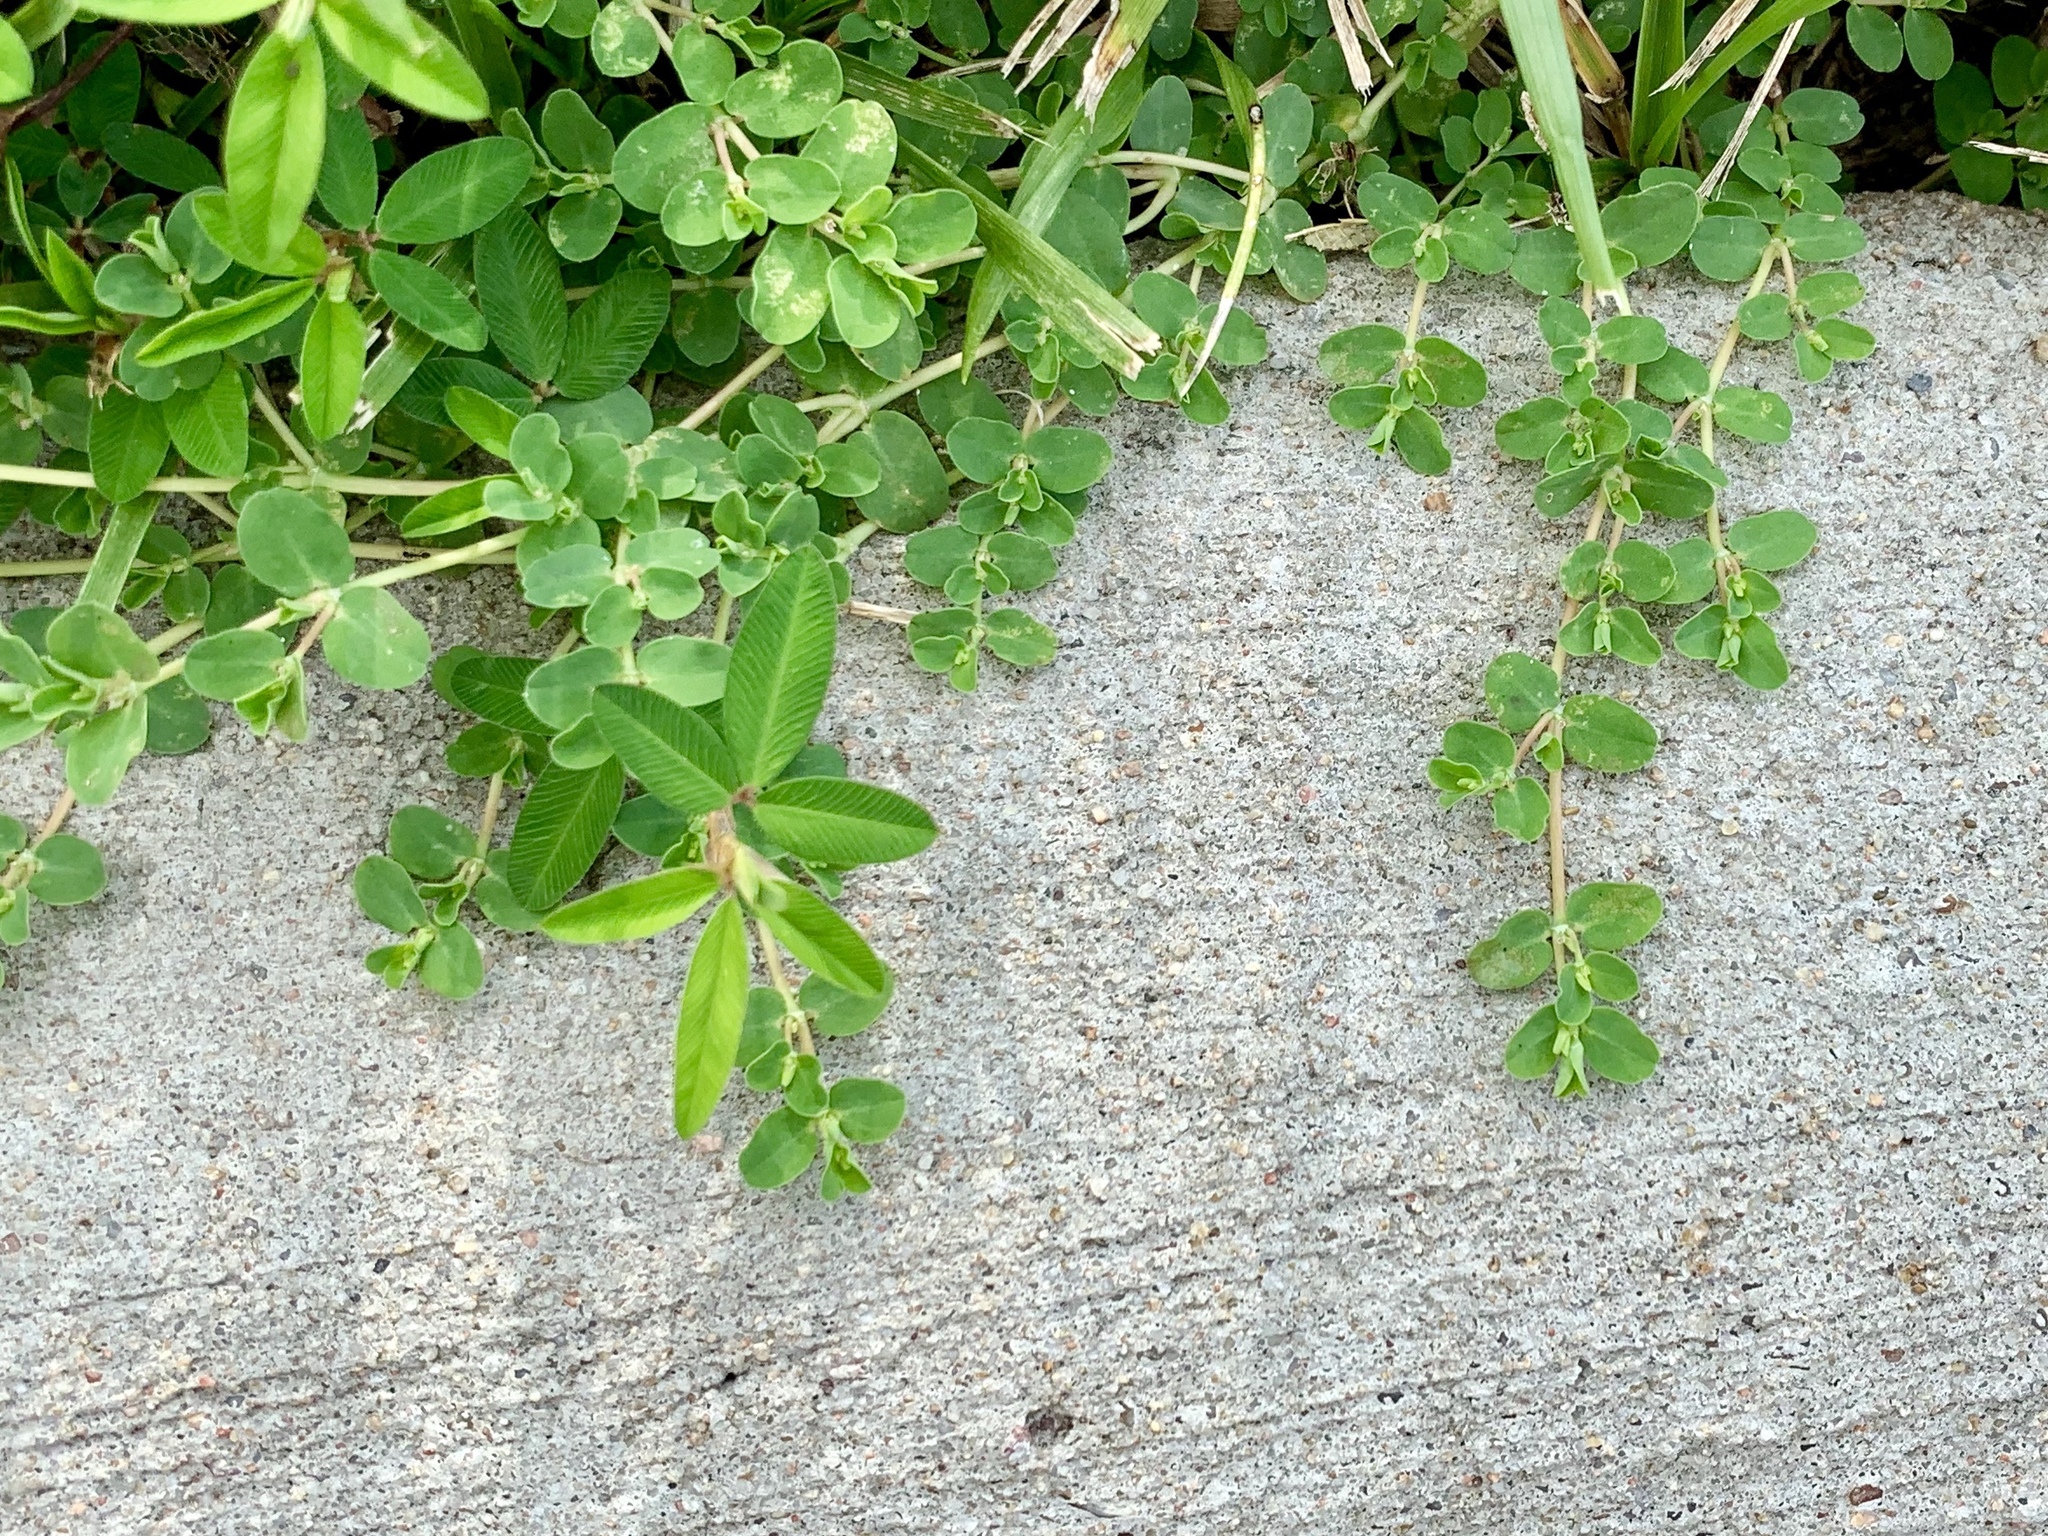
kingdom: Plantae
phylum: Tracheophyta
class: Magnoliopsida
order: Malpighiales
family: Euphorbiaceae
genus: Euphorbia
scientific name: Euphorbia serpens
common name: Matted sandmat
